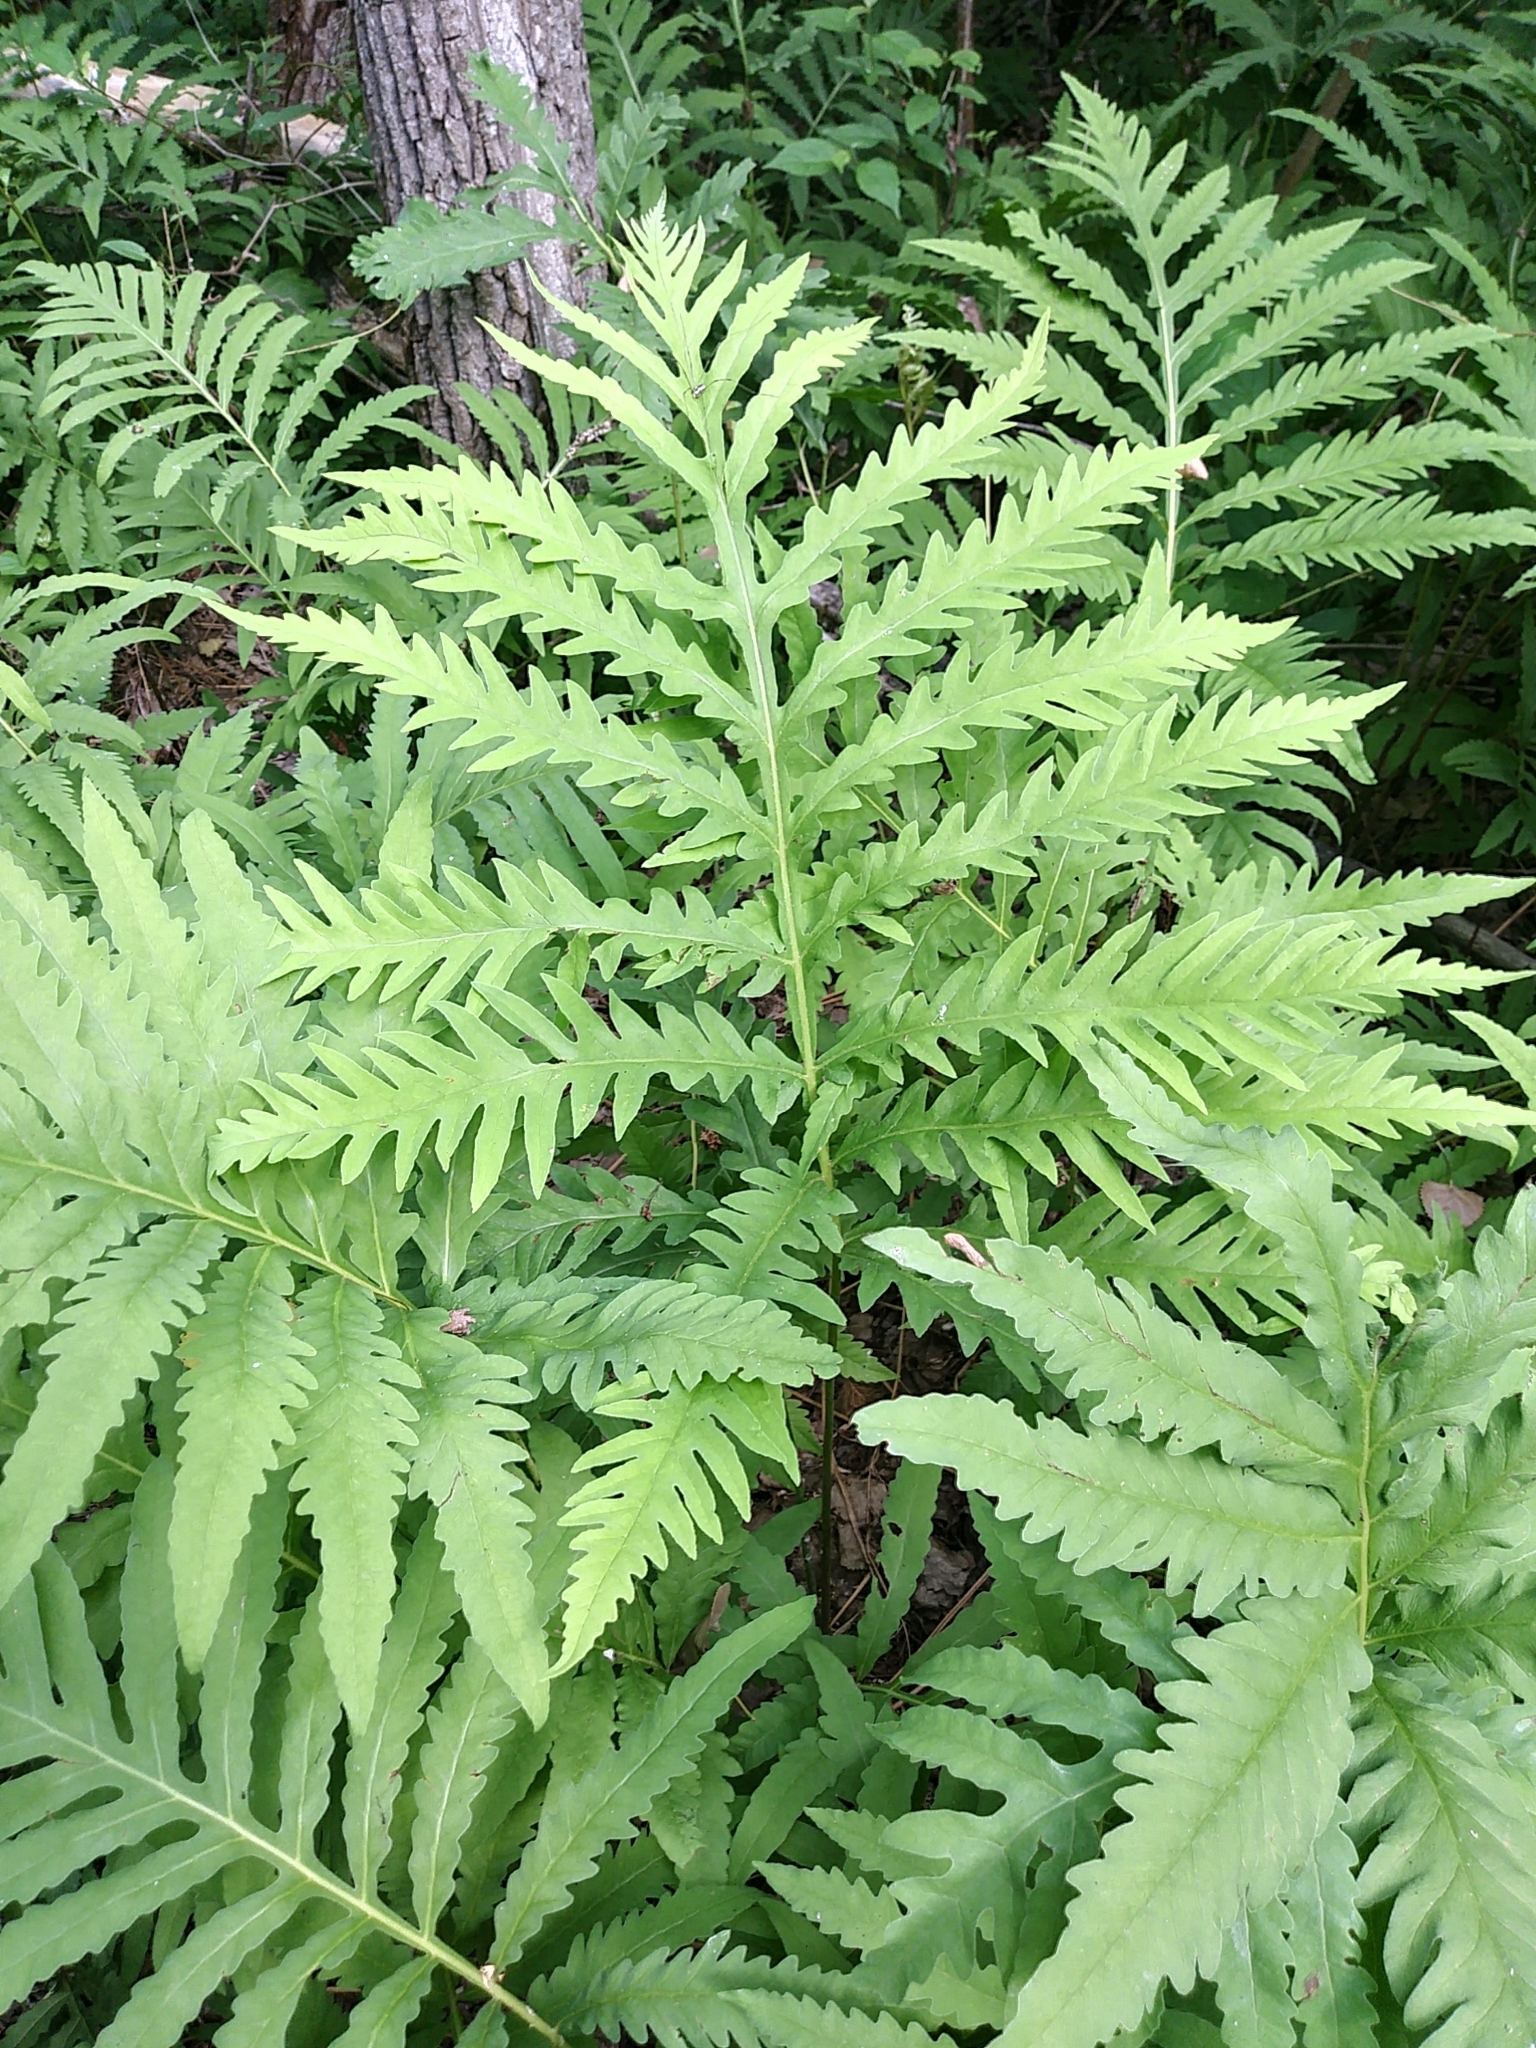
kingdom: Plantae
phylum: Tracheophyta
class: Polypodiopsida
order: Polypodiales
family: Onocleaceae
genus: Onoclea
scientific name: Onoclea sensibilis
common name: Sensitive fern
